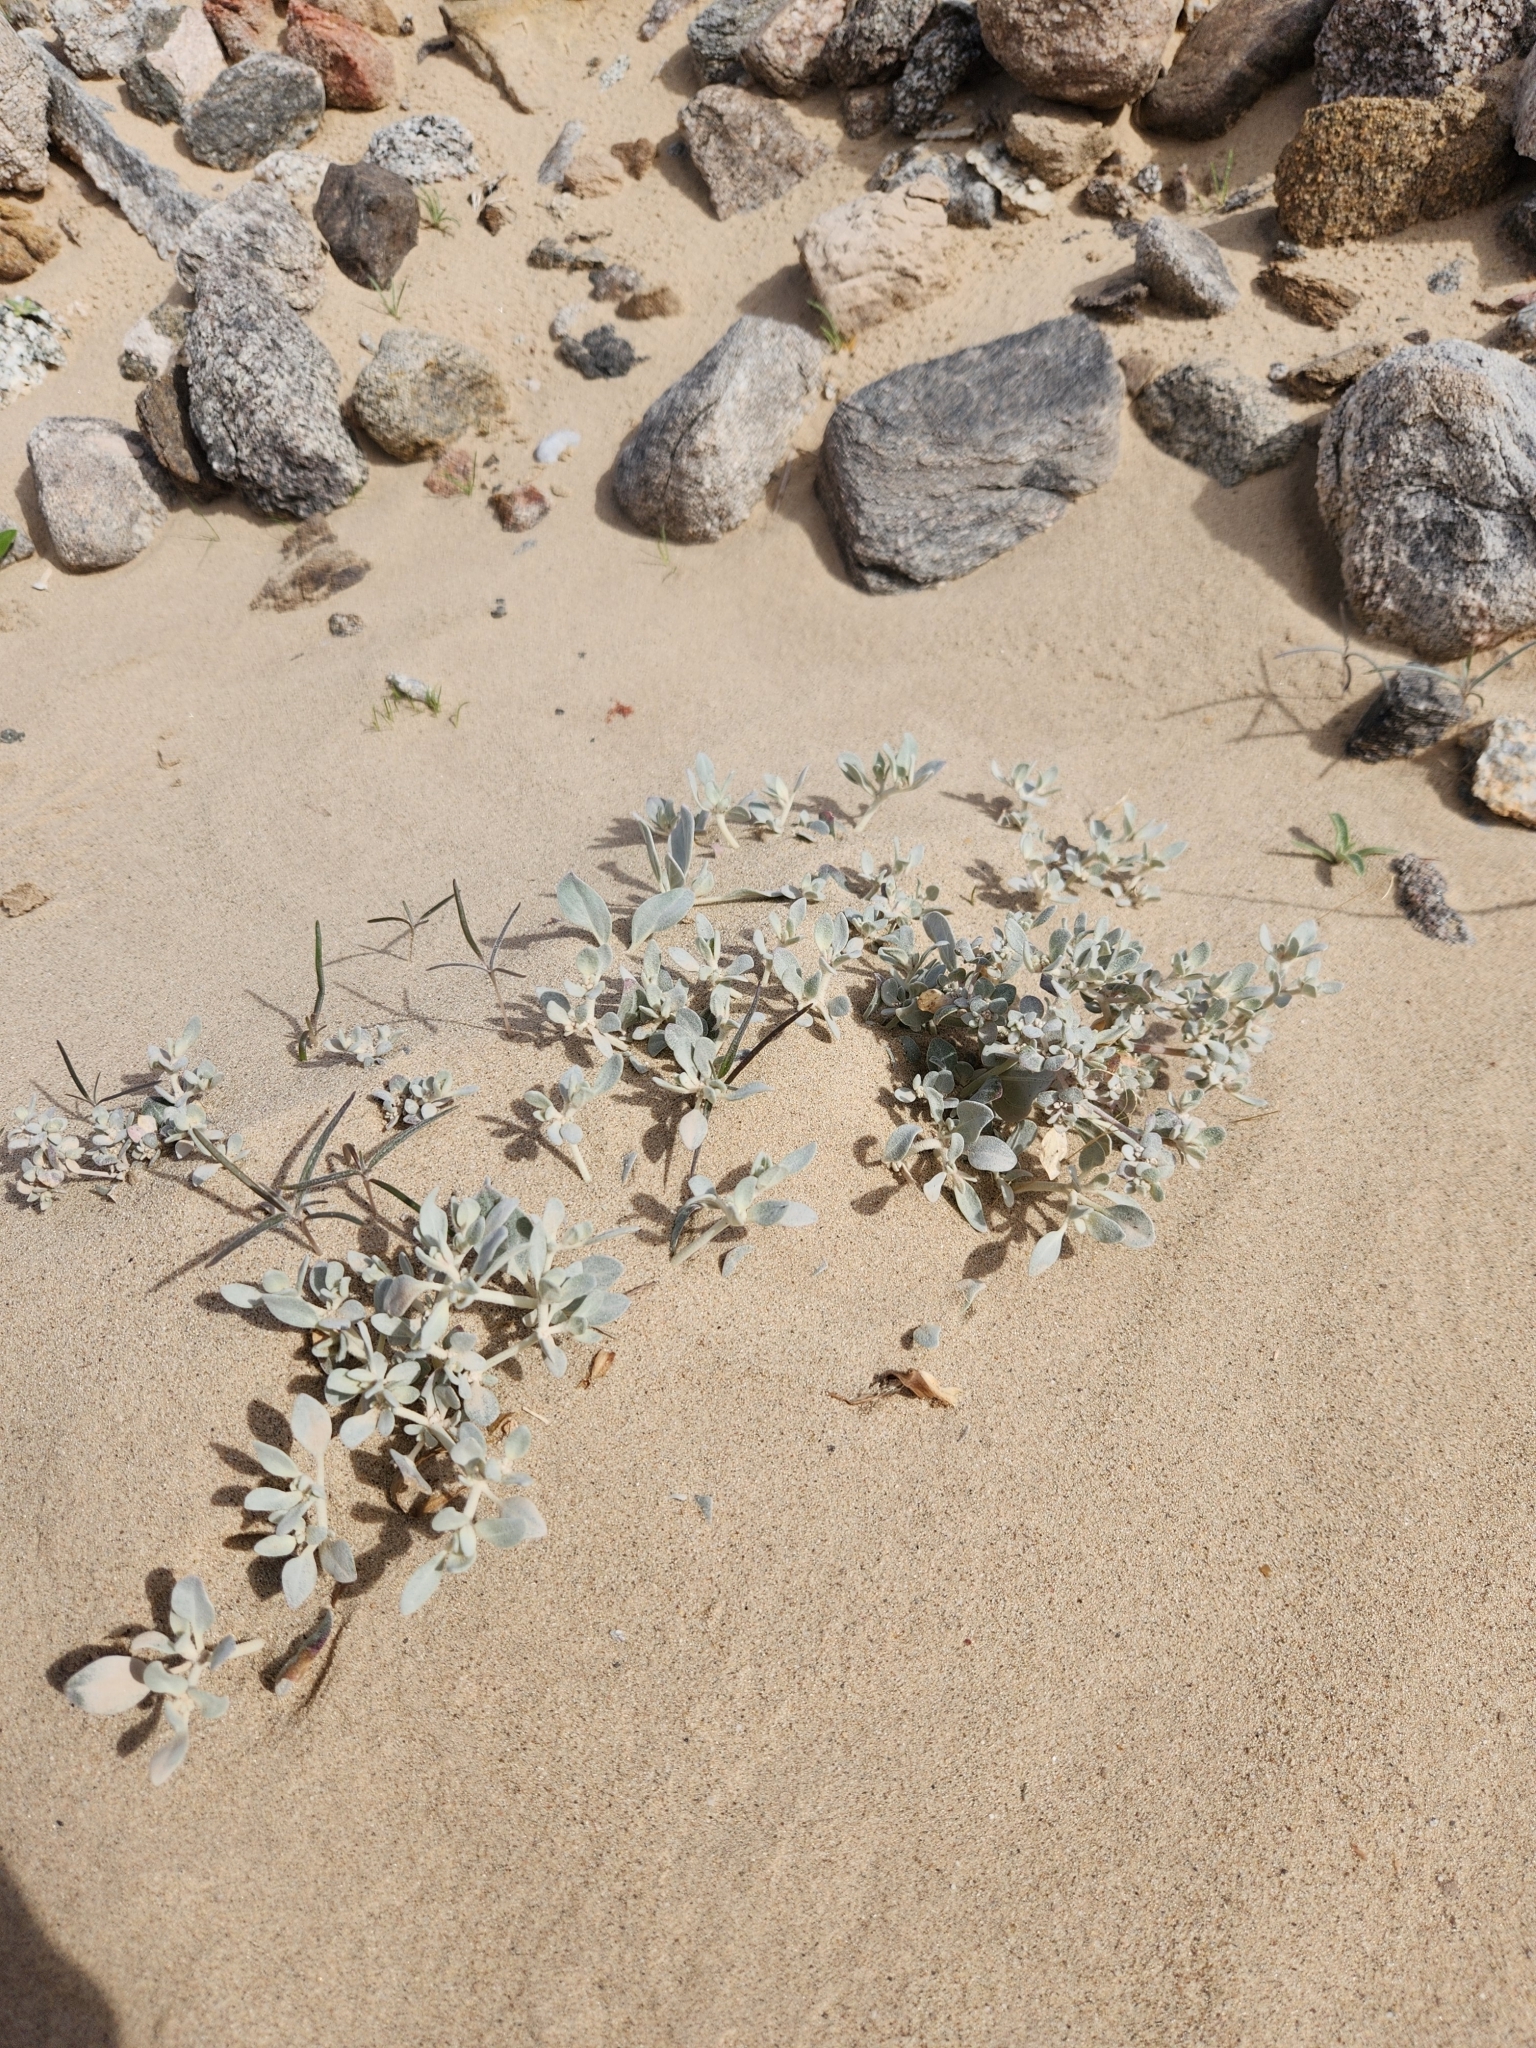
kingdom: Plantae
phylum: Tracheophyta
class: Magnoliopsida
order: Caryophyllales
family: Amaranthaceae
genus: Tidestromia
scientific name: Tidestromia suffruticosa
